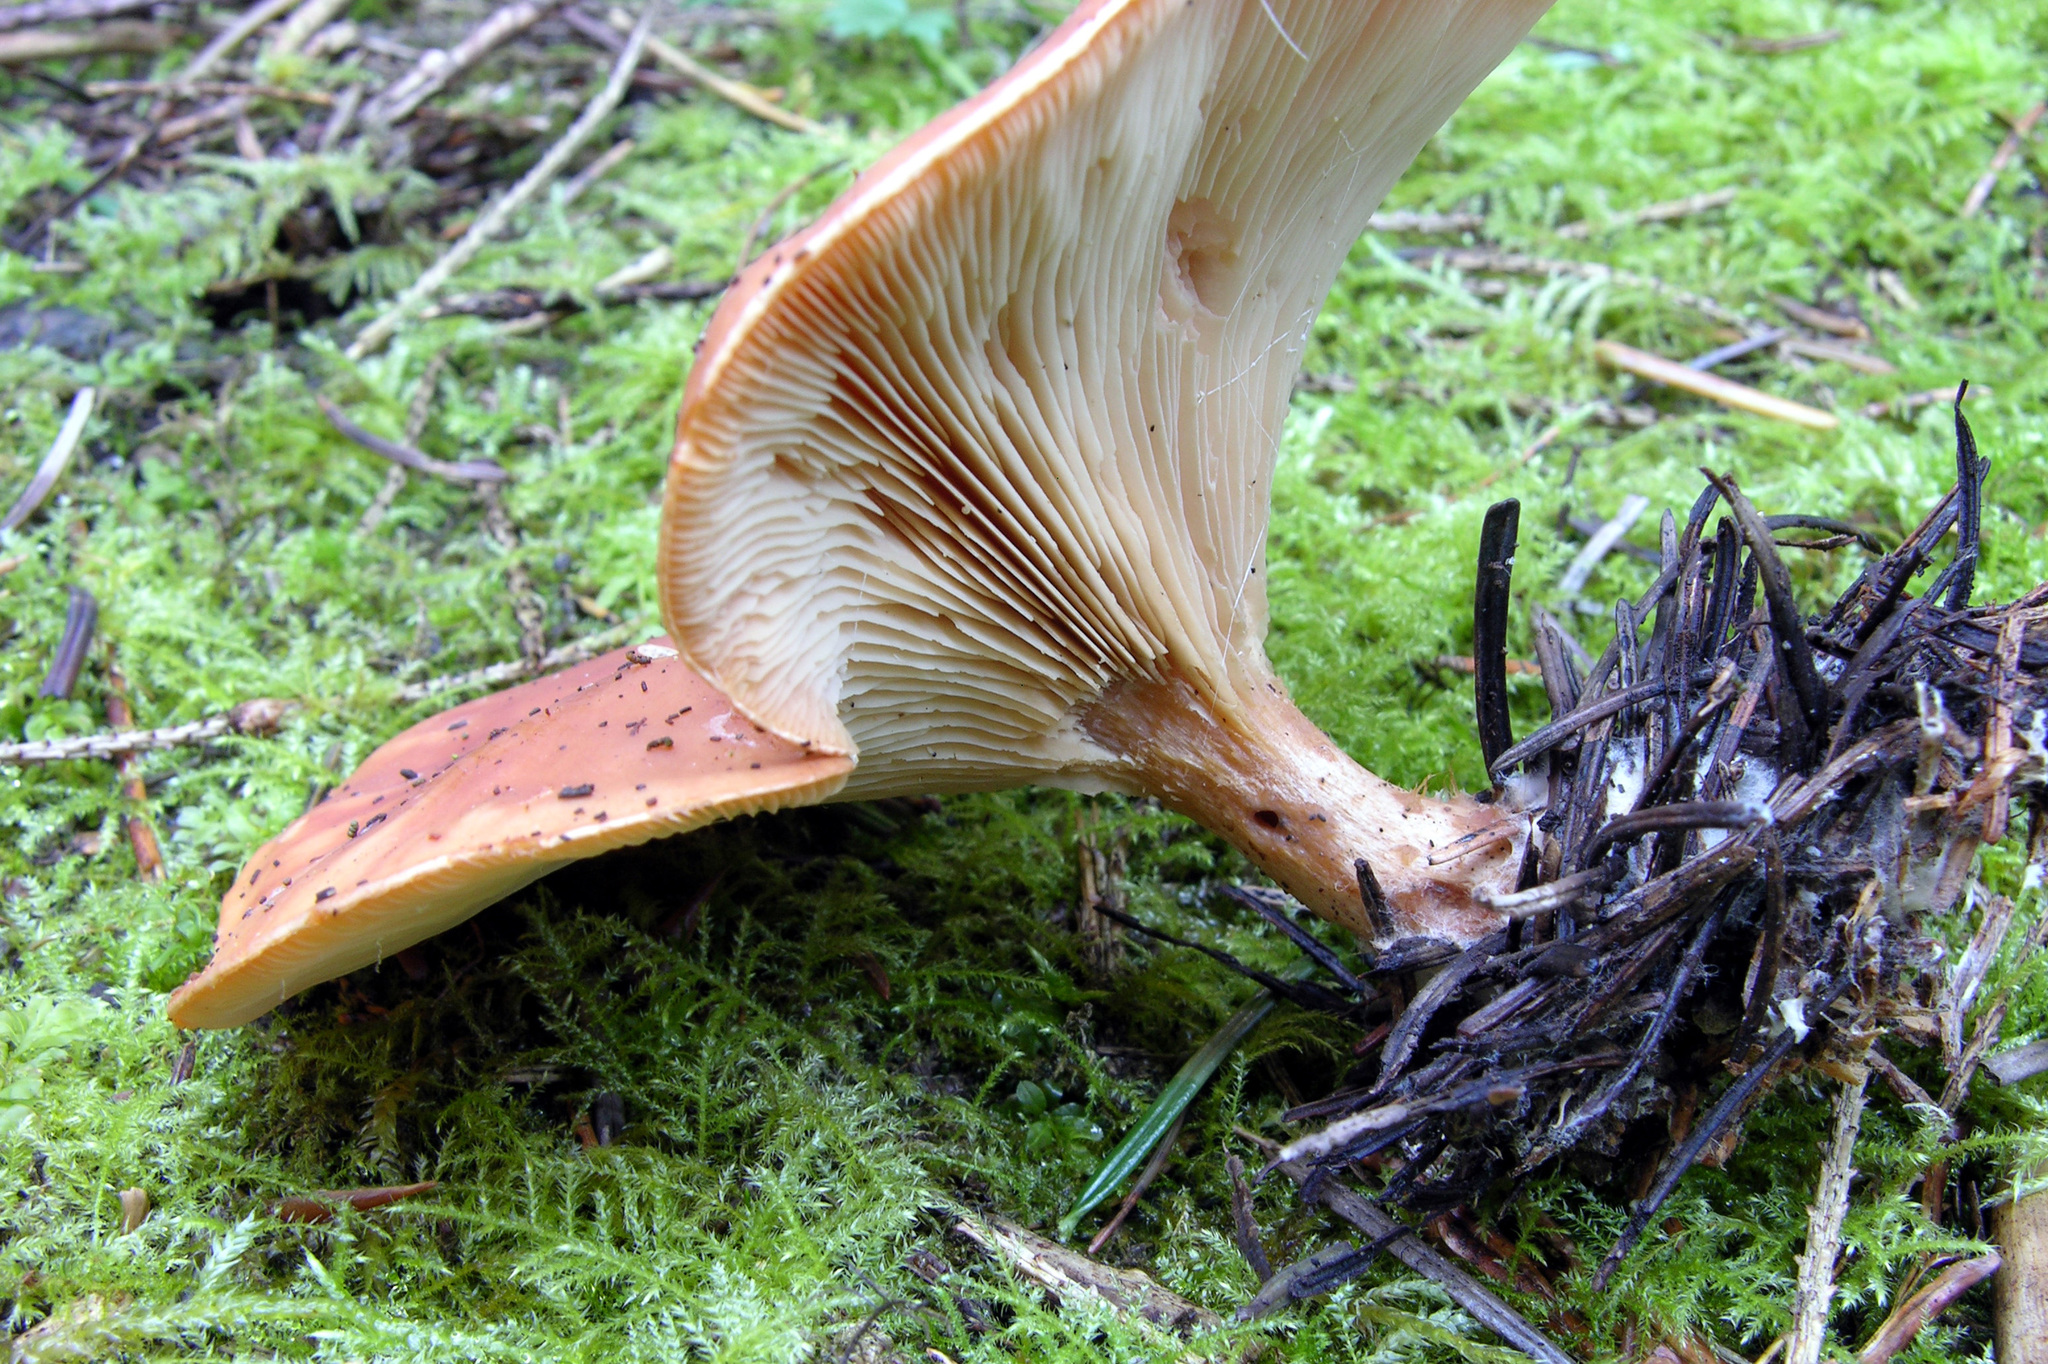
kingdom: Fungi
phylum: Basidiomycota
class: Agaricomycetes
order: Agaricales
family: Tricholomataceae
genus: Paralepista
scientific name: Paralepista flaccida
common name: Tawny funnel cap
